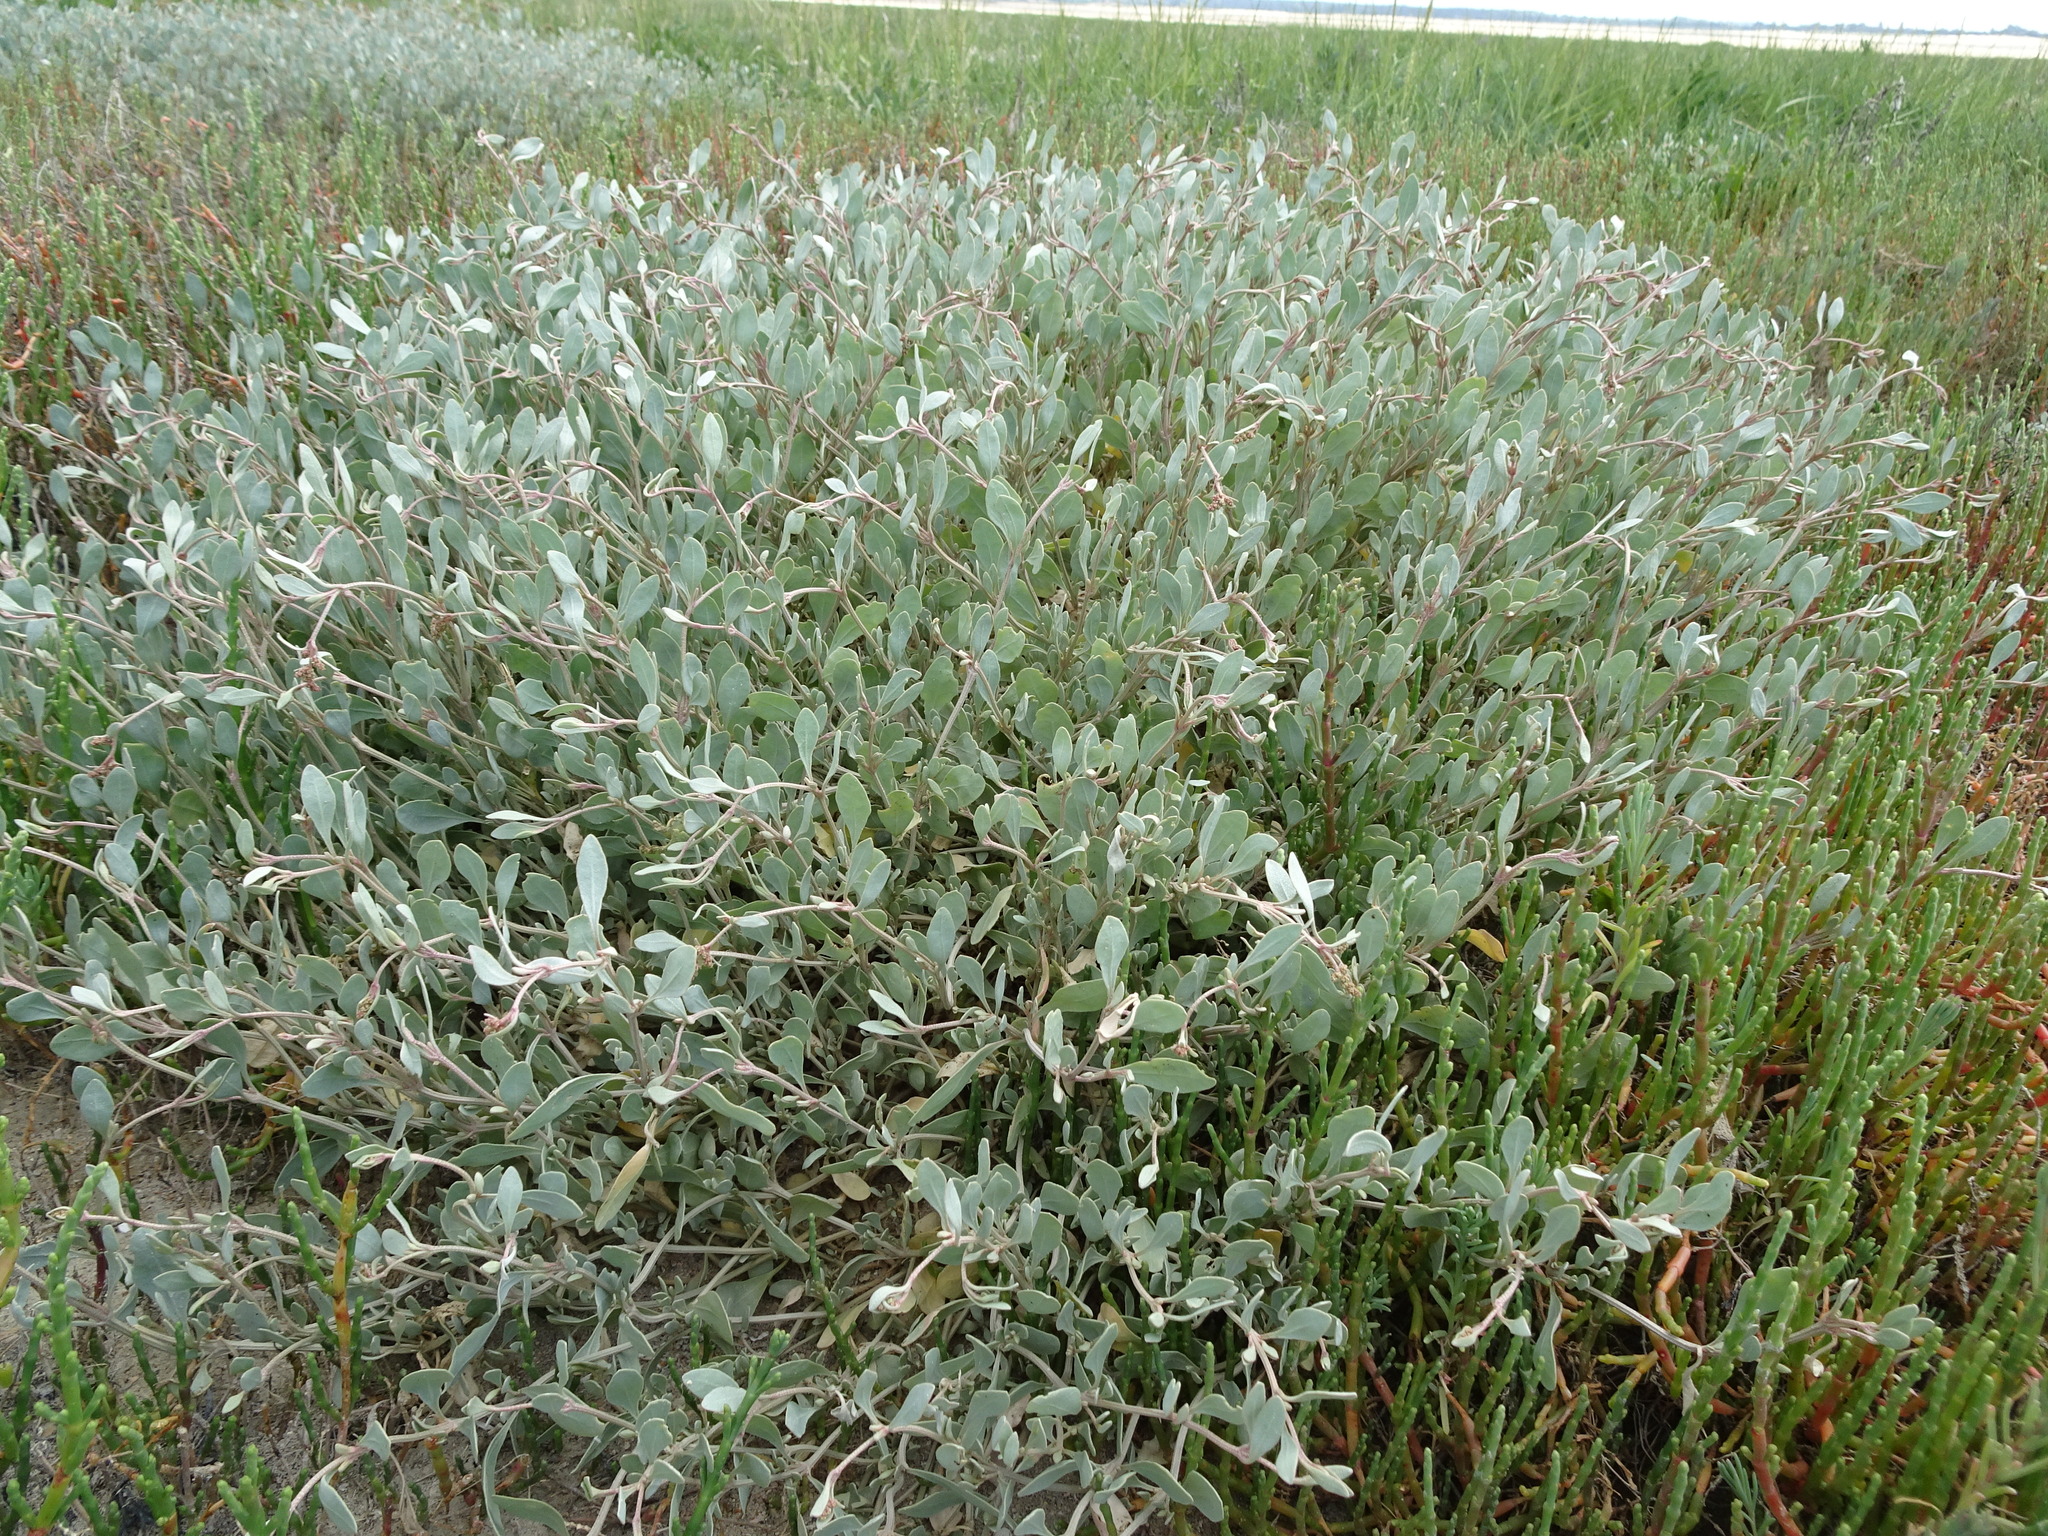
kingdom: Plantae
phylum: Tracheophyta
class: Magnoliopsida
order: Caryophyllales
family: Amaranthaceae
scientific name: Amaranthaceae
